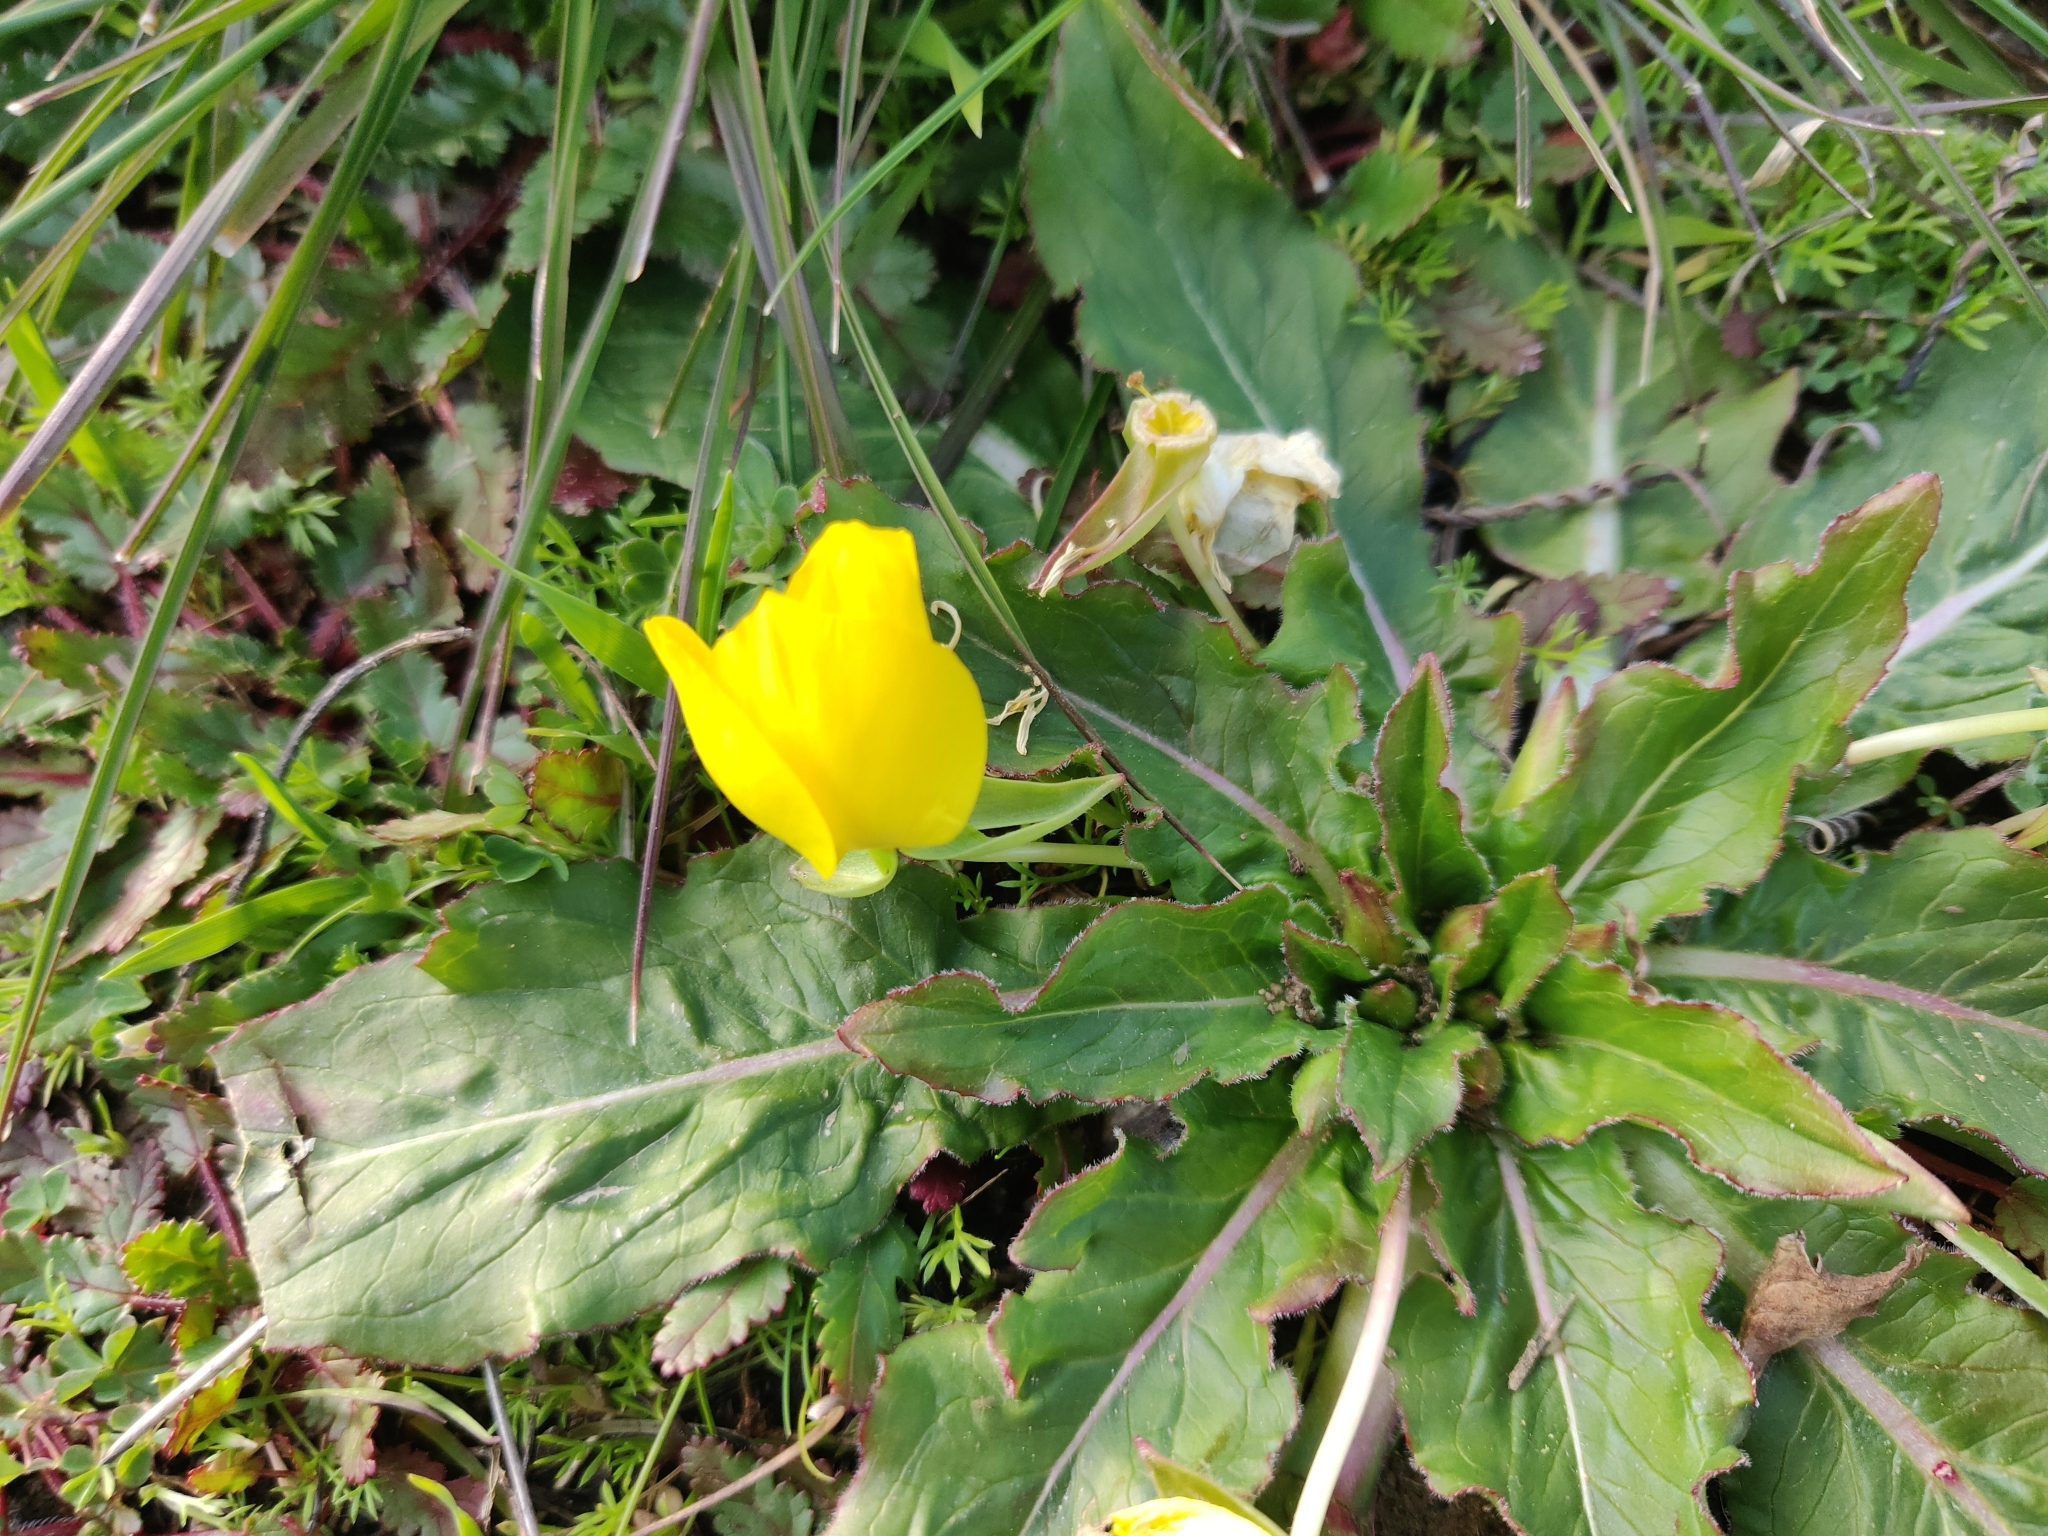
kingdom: Plantae
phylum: Tracheophyta
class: Magnoliopsida
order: Myrtales
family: Onagraceae
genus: Taraxia
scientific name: Taraxia ovata
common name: Goldeneggs
